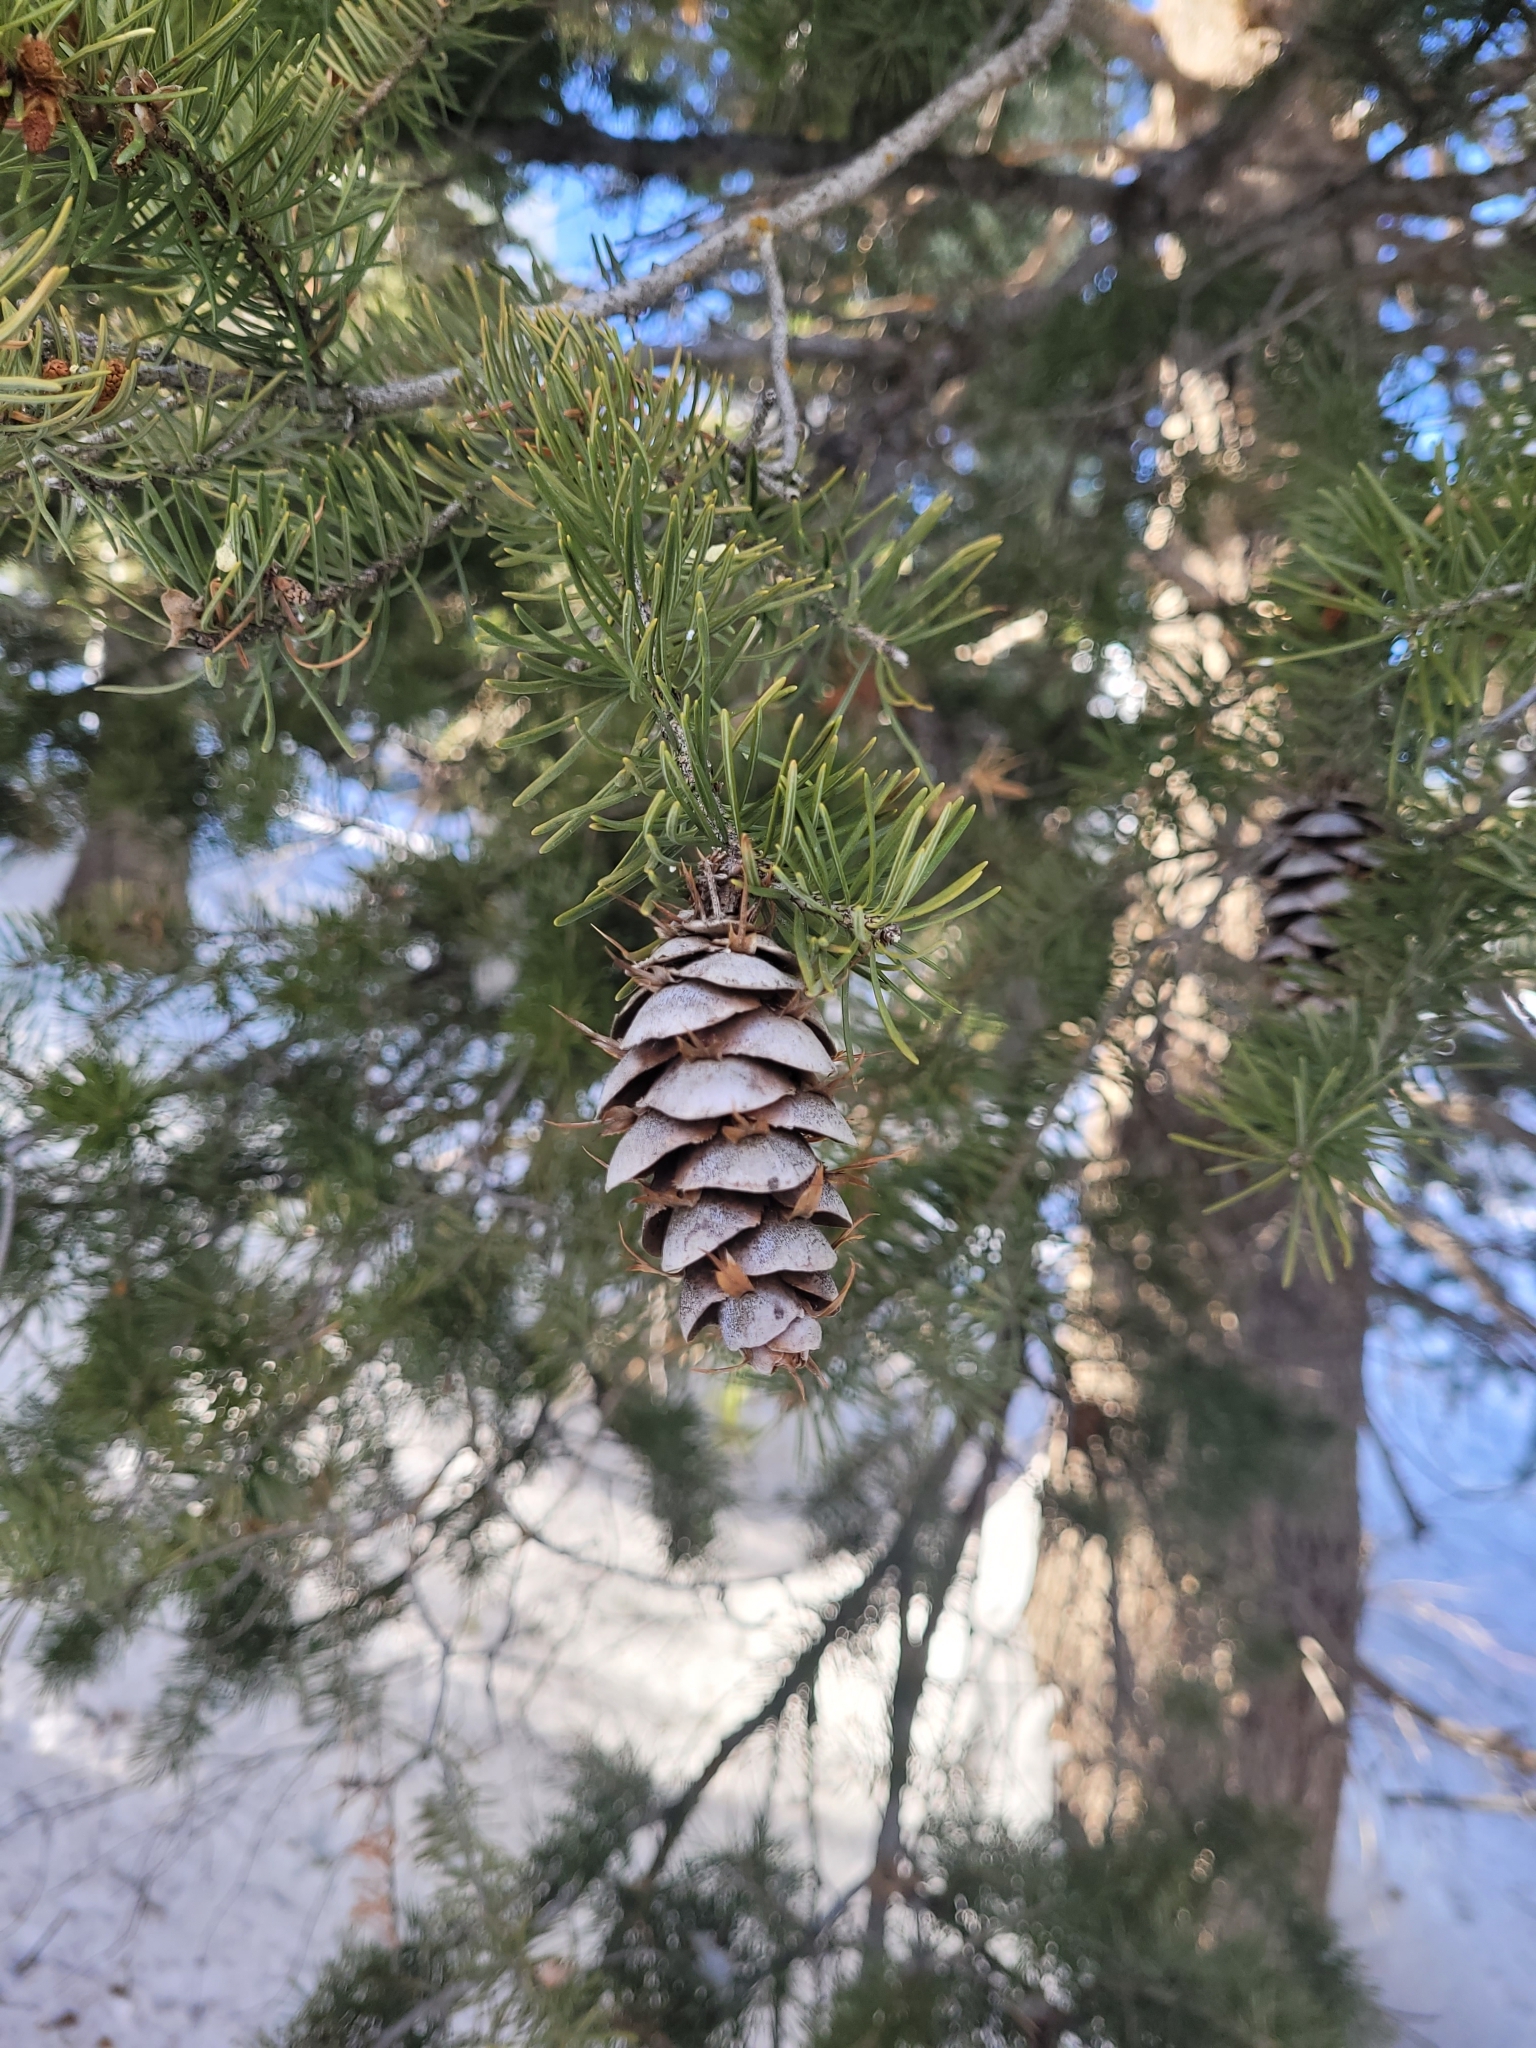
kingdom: Plantae
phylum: Tracheophyta
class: Pinopsida
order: Pinales
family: Pinaceae
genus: Pseudotsuga
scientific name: Pseudotsuga menziesii
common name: Douglas fir
